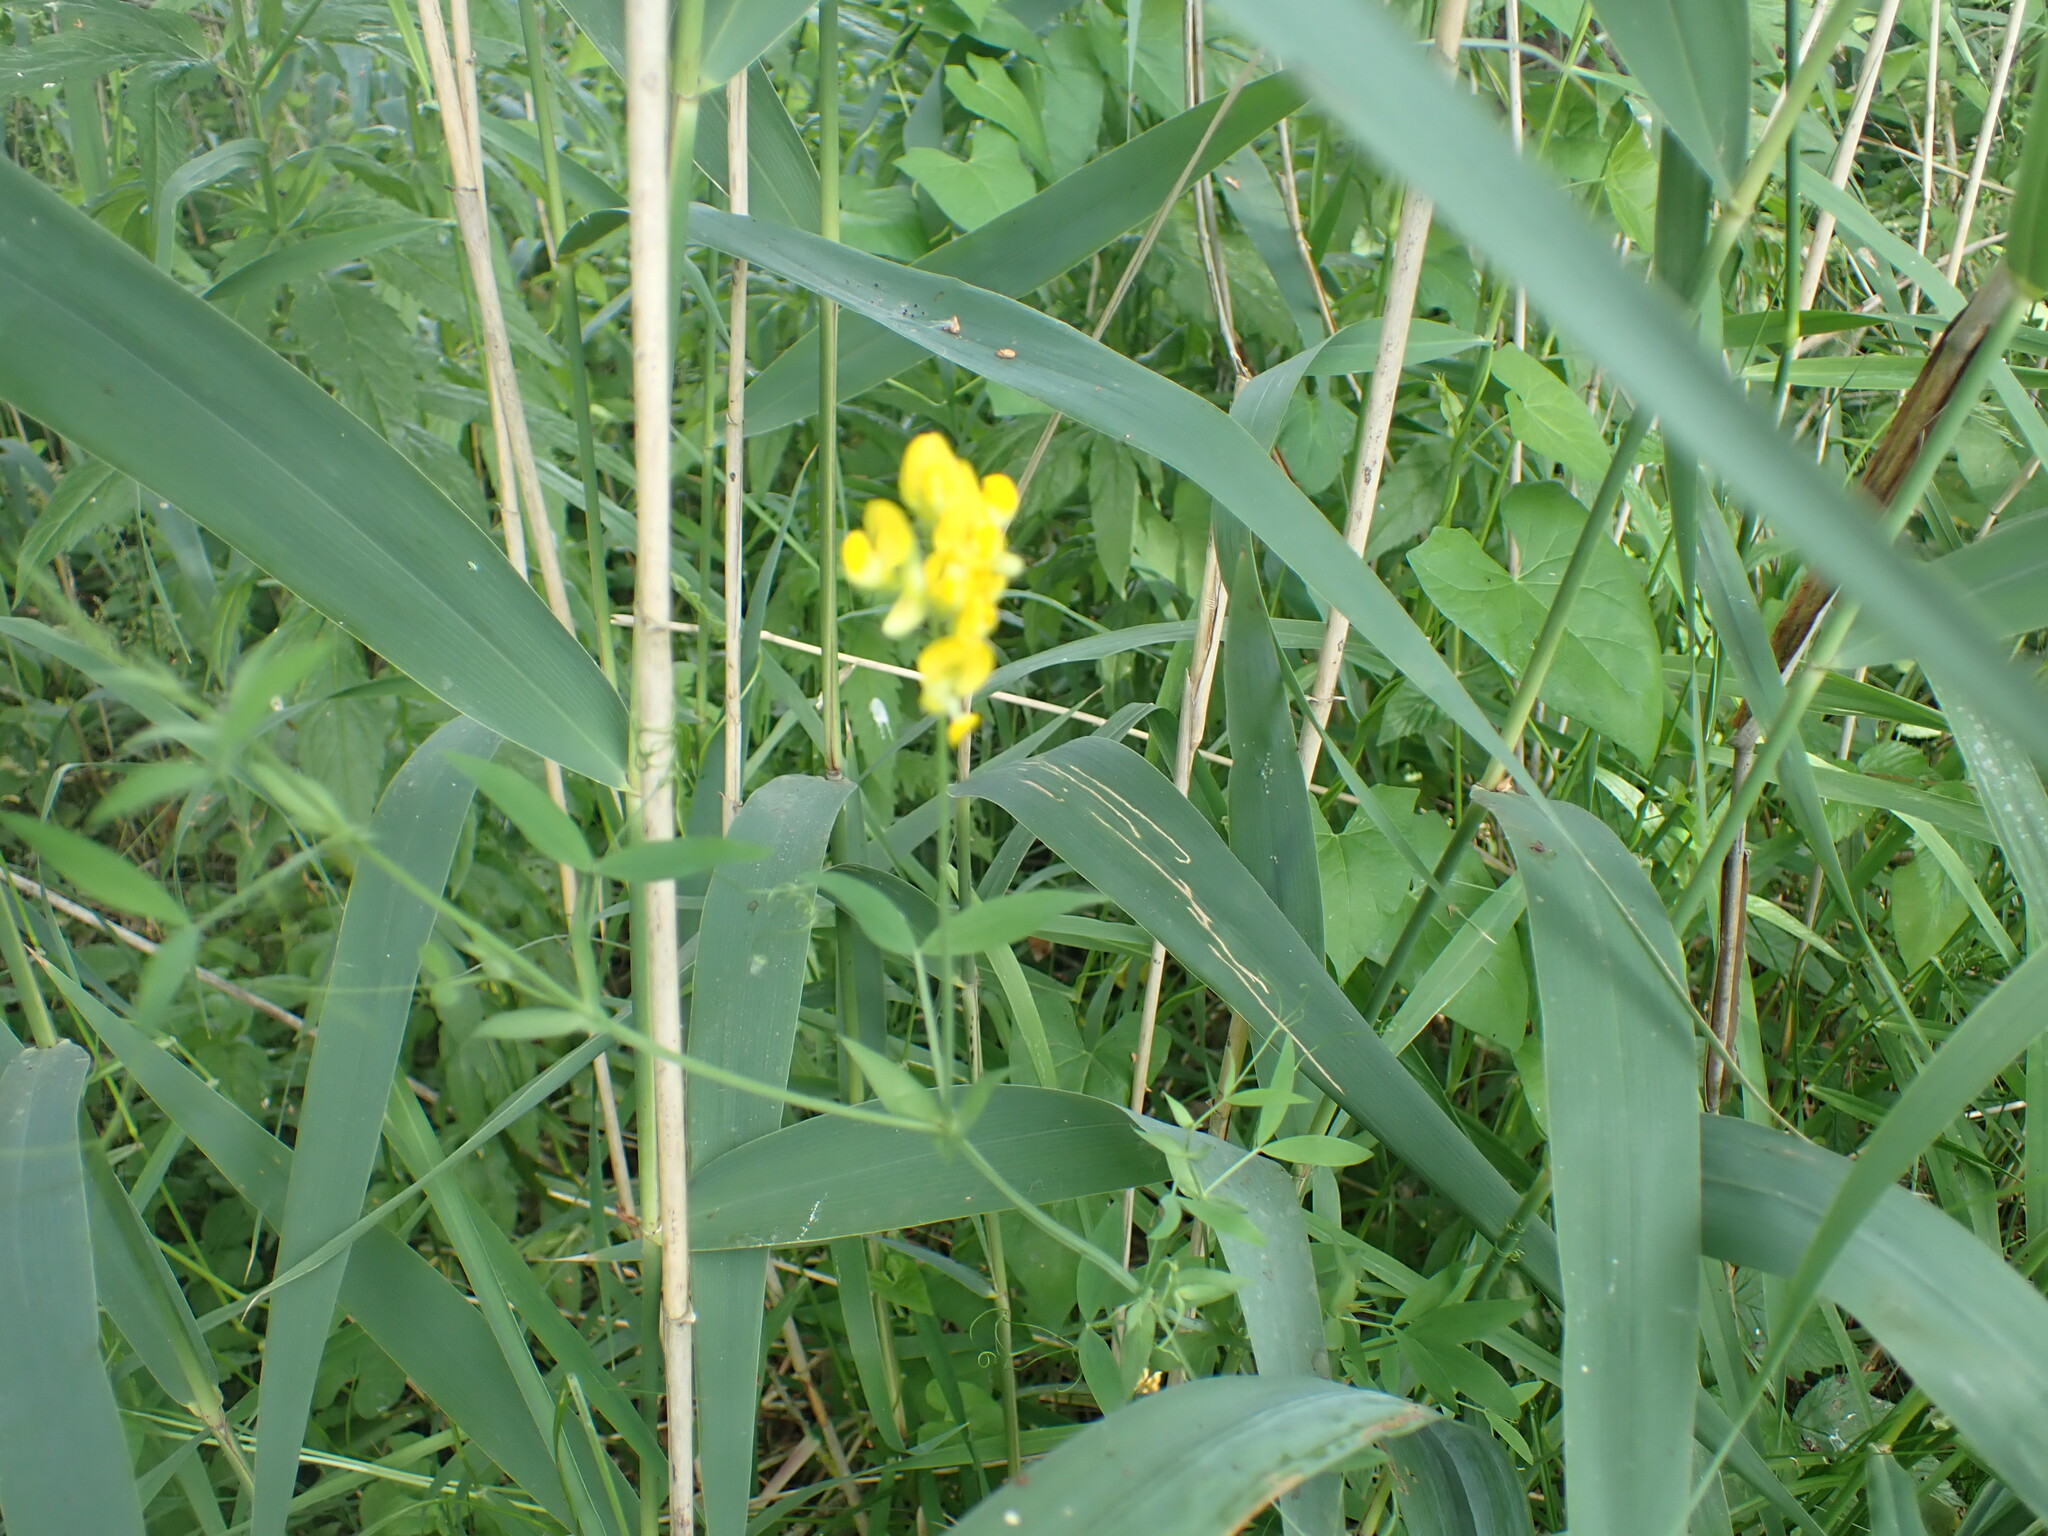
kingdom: Plantae
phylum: Tracheophyta
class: Magnoliopsida
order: Fabales
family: Fabaceae
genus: Lathyrus
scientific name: Lathyrus pratensis
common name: Meadow vetchling
